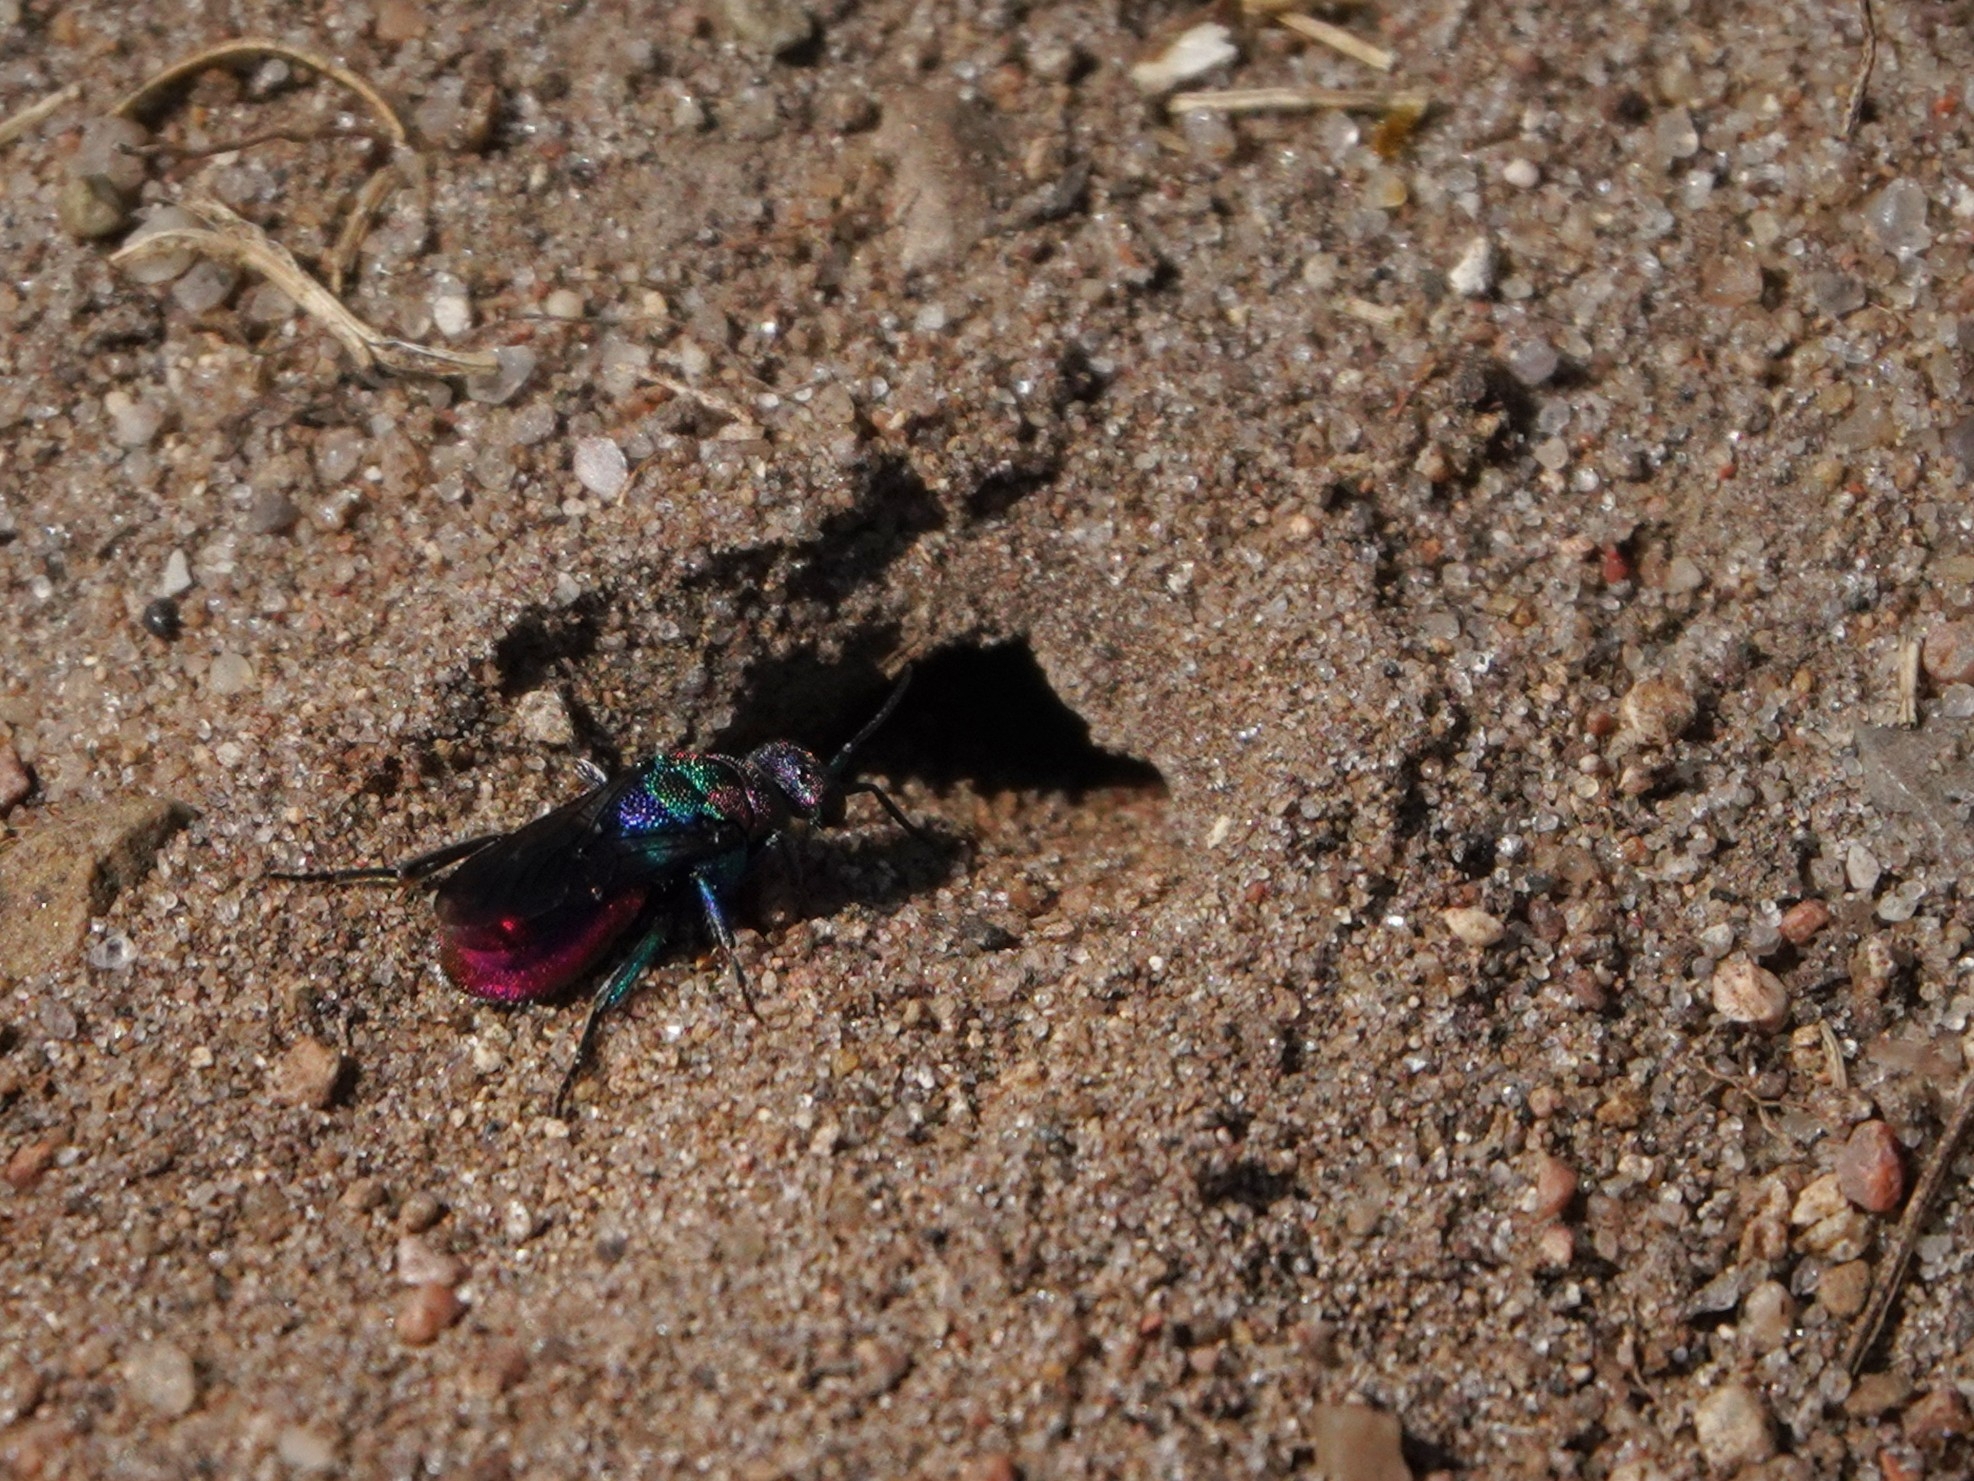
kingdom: Animalia
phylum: Arthropoda
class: Insecta
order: Hymenoptera
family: Chrysididae
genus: Hedychrum
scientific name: Hedychrum rutilans
